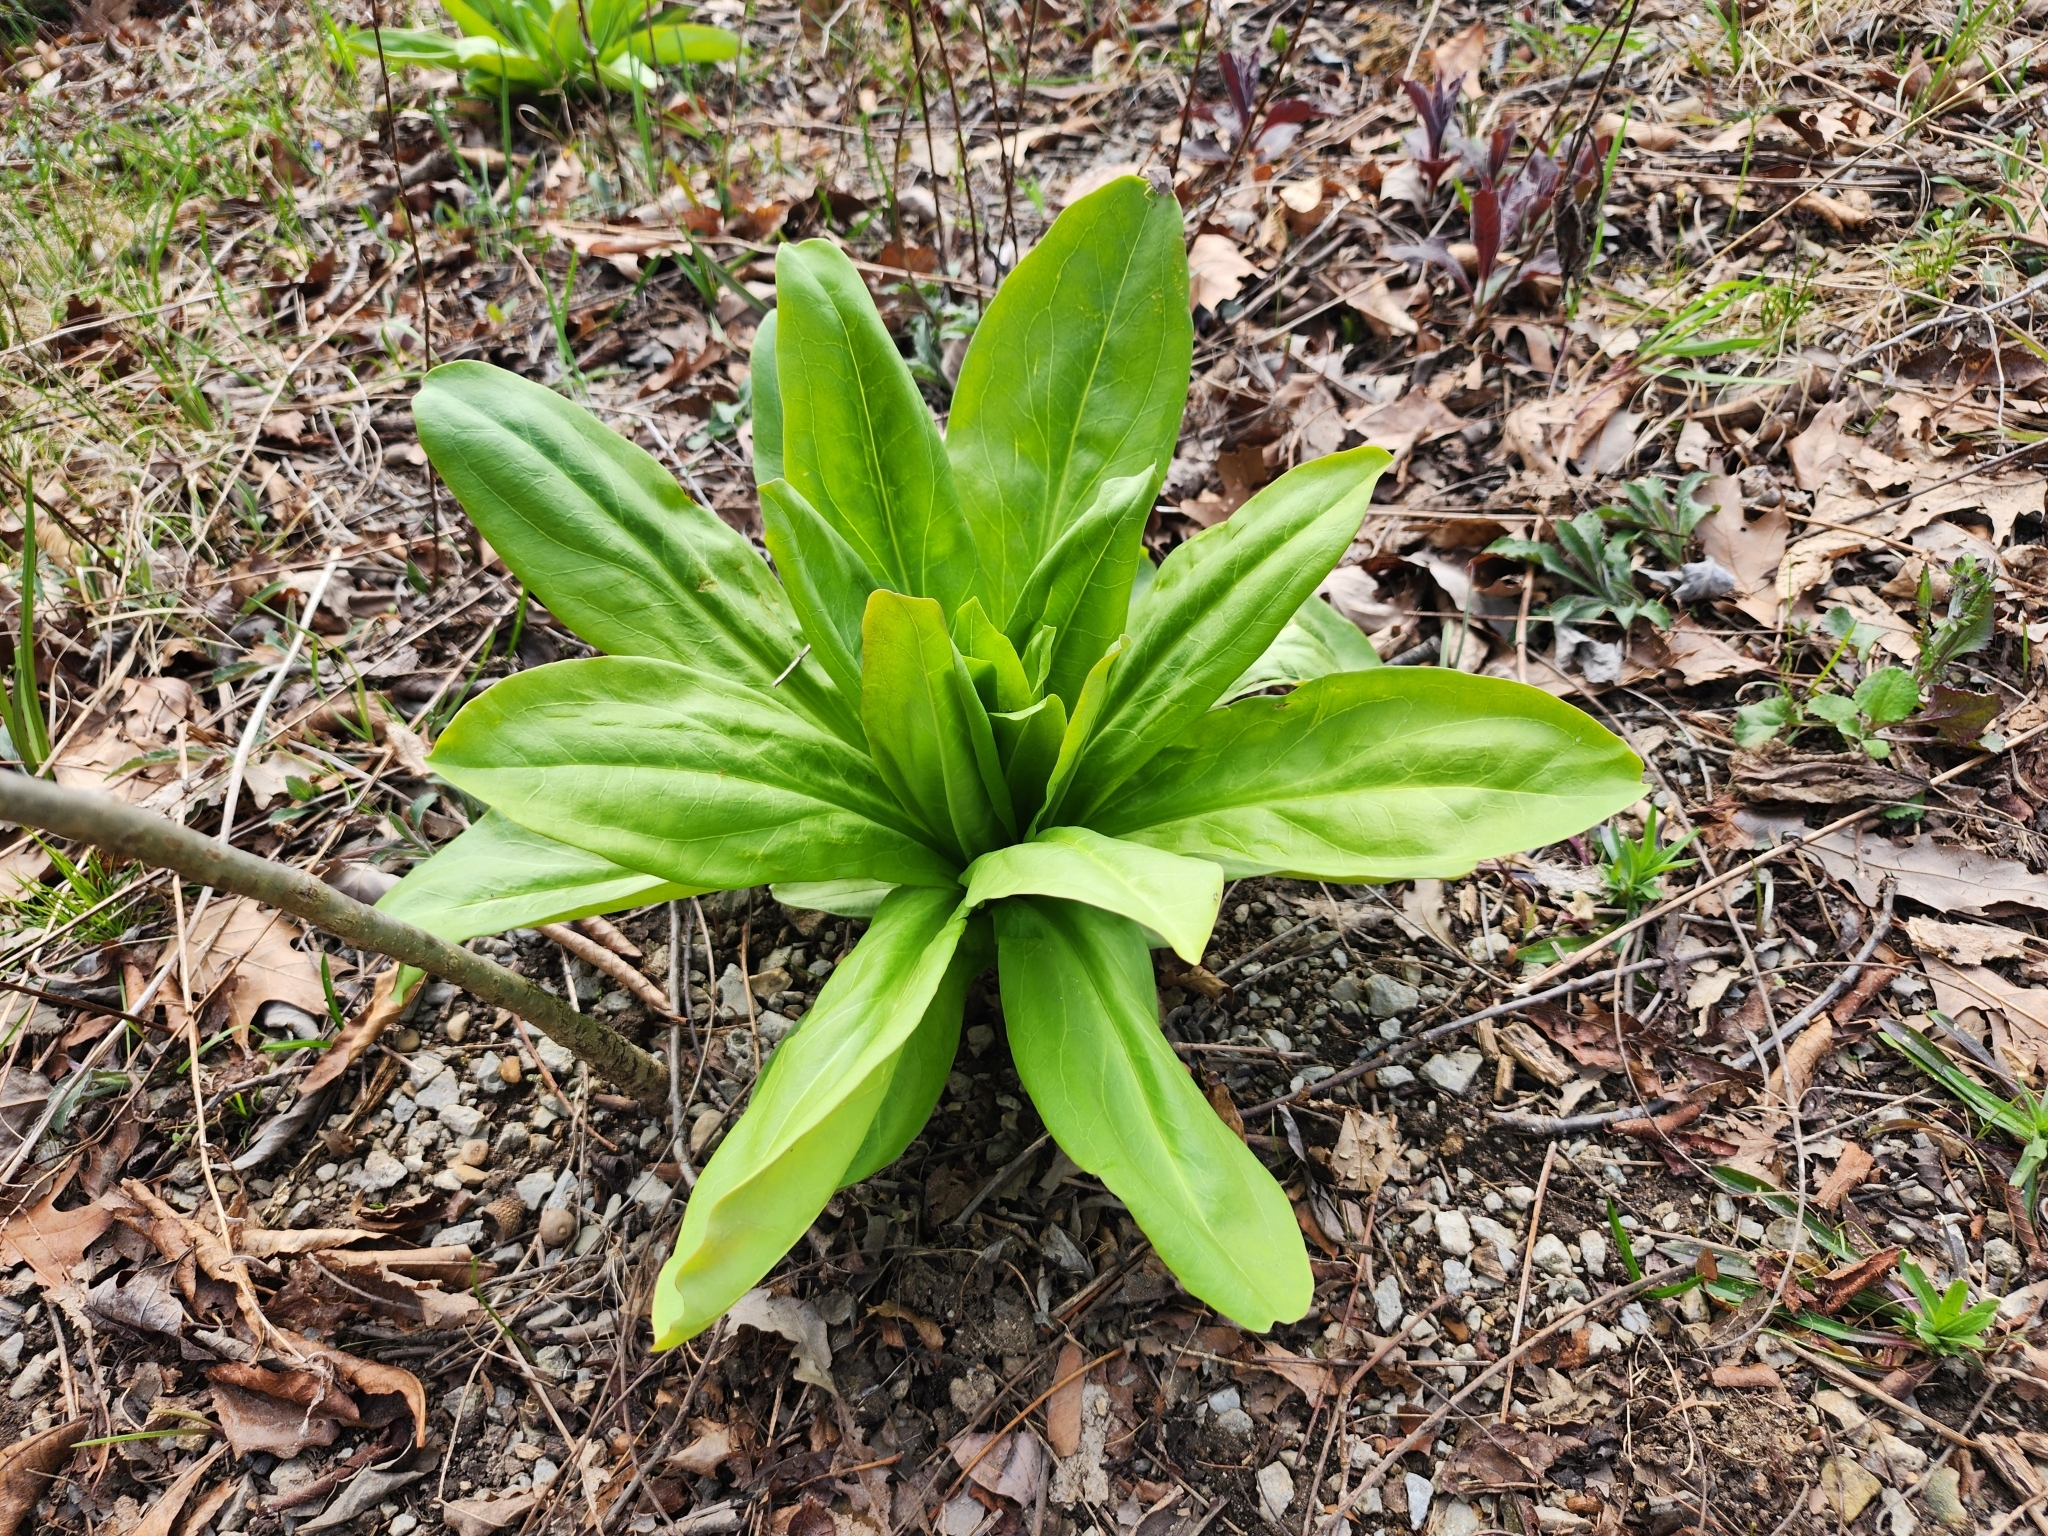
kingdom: Plantae
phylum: Tracheophyta
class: Magnoliopsida
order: Ericales
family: Primulaceae
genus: Dodecatheon
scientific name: Dodecatheon meadia
